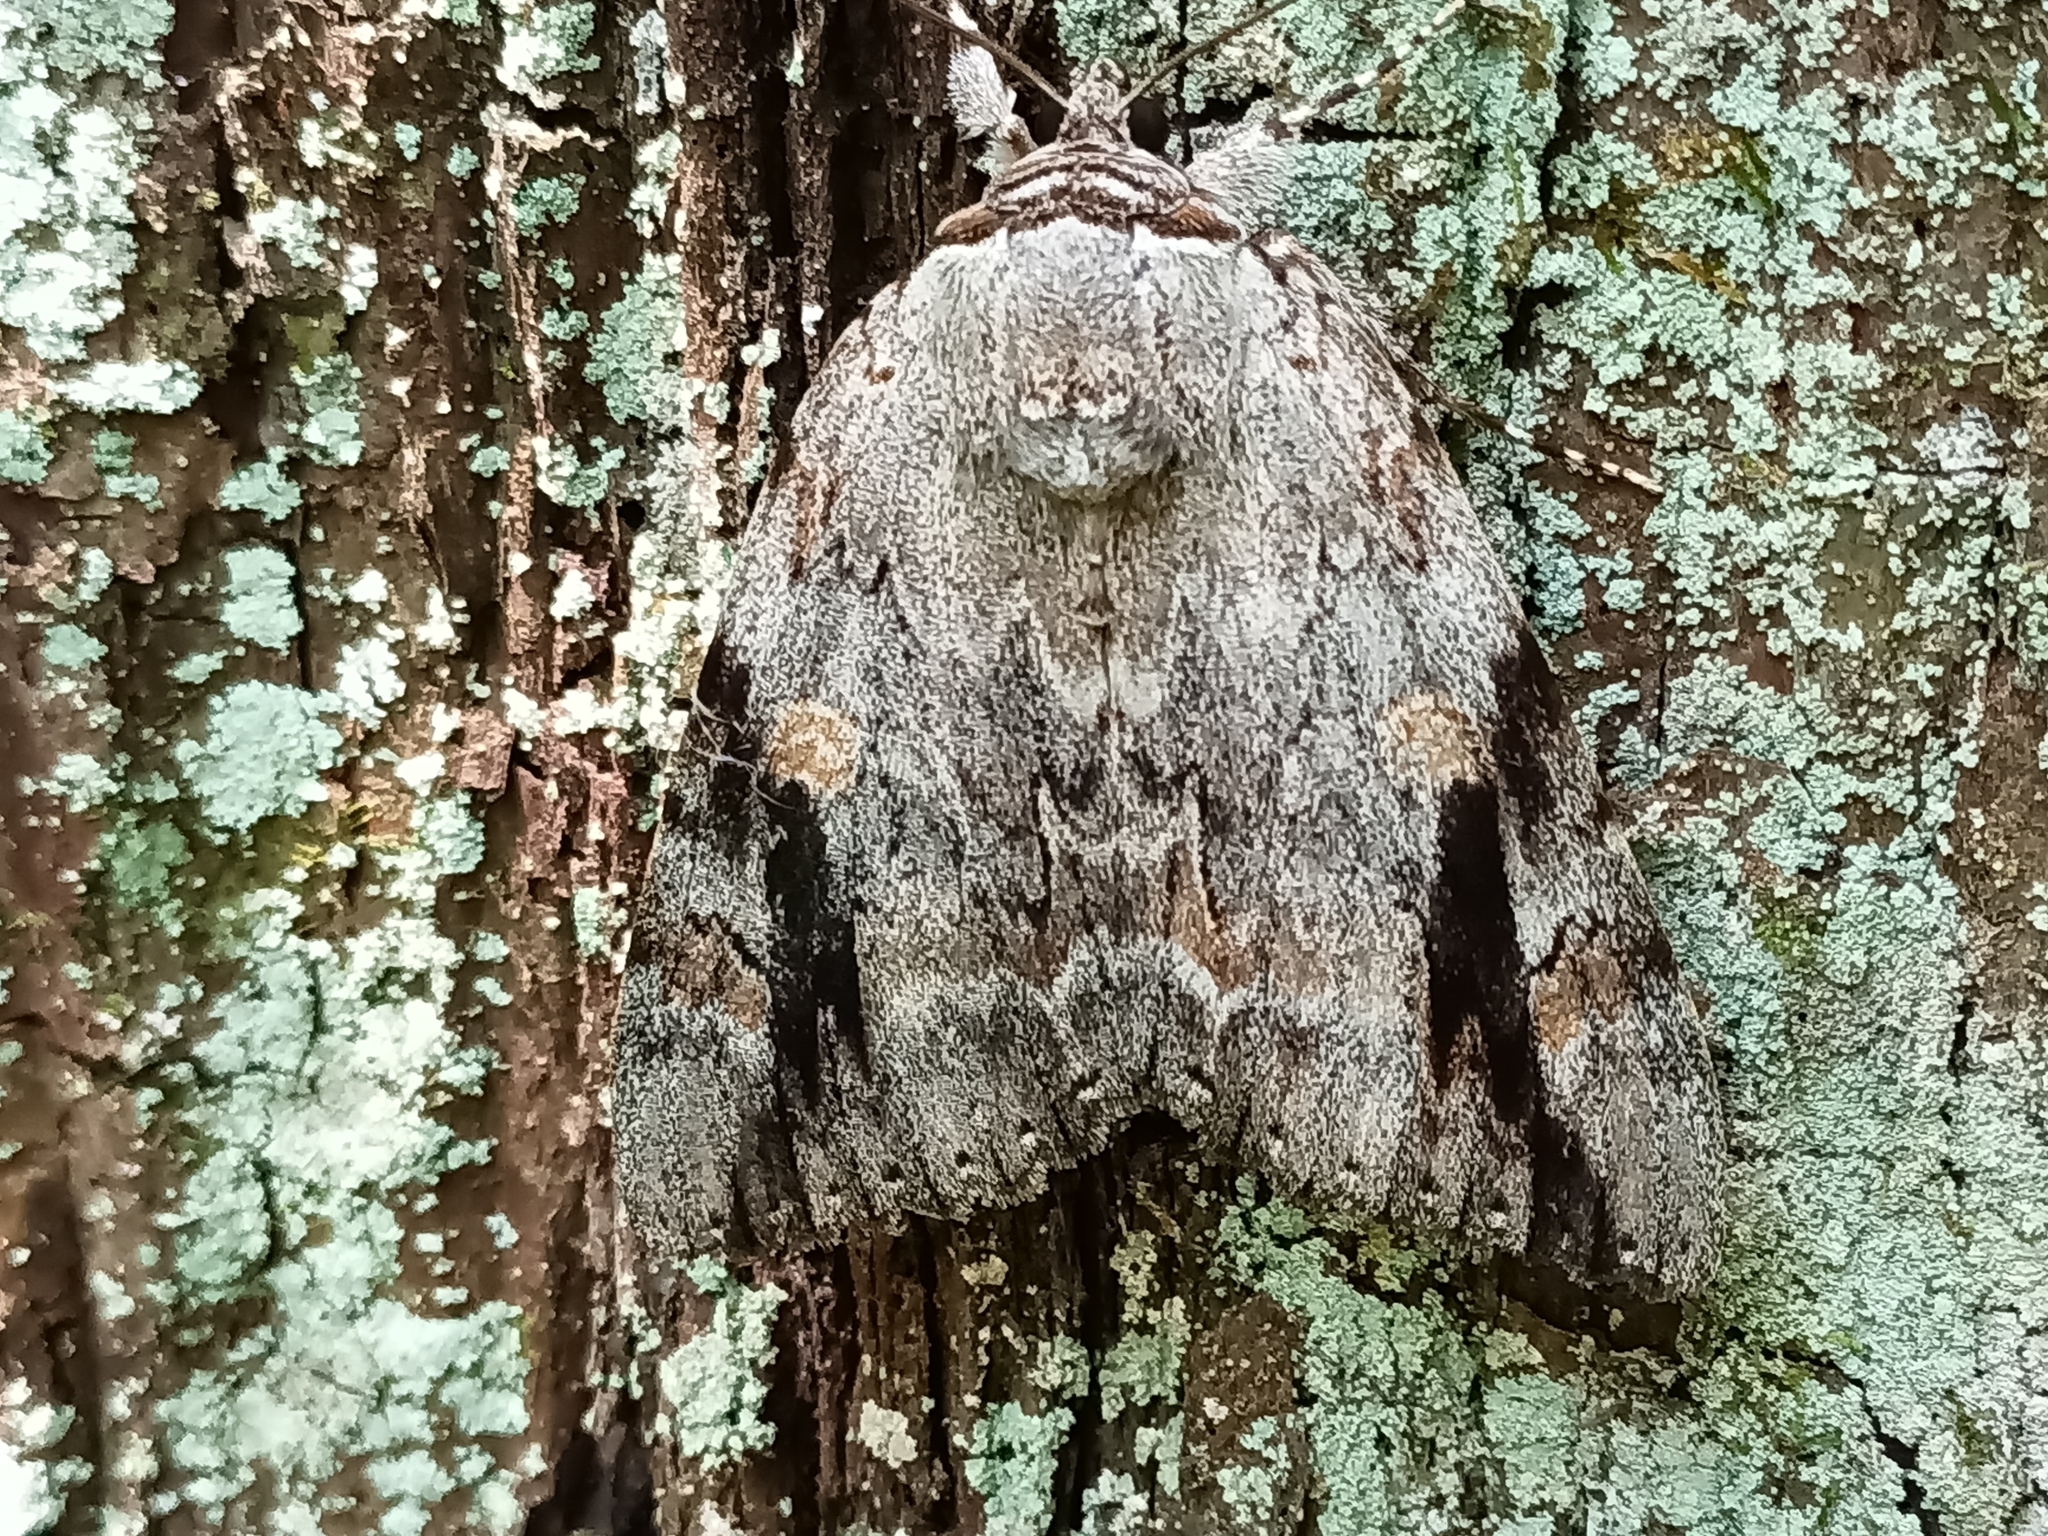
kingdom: Animalia
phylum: Arthropoda
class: Insecta
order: Lepidoptera
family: Erebidae
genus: Catocala
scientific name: Catocala maestosa
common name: Sad underwing
